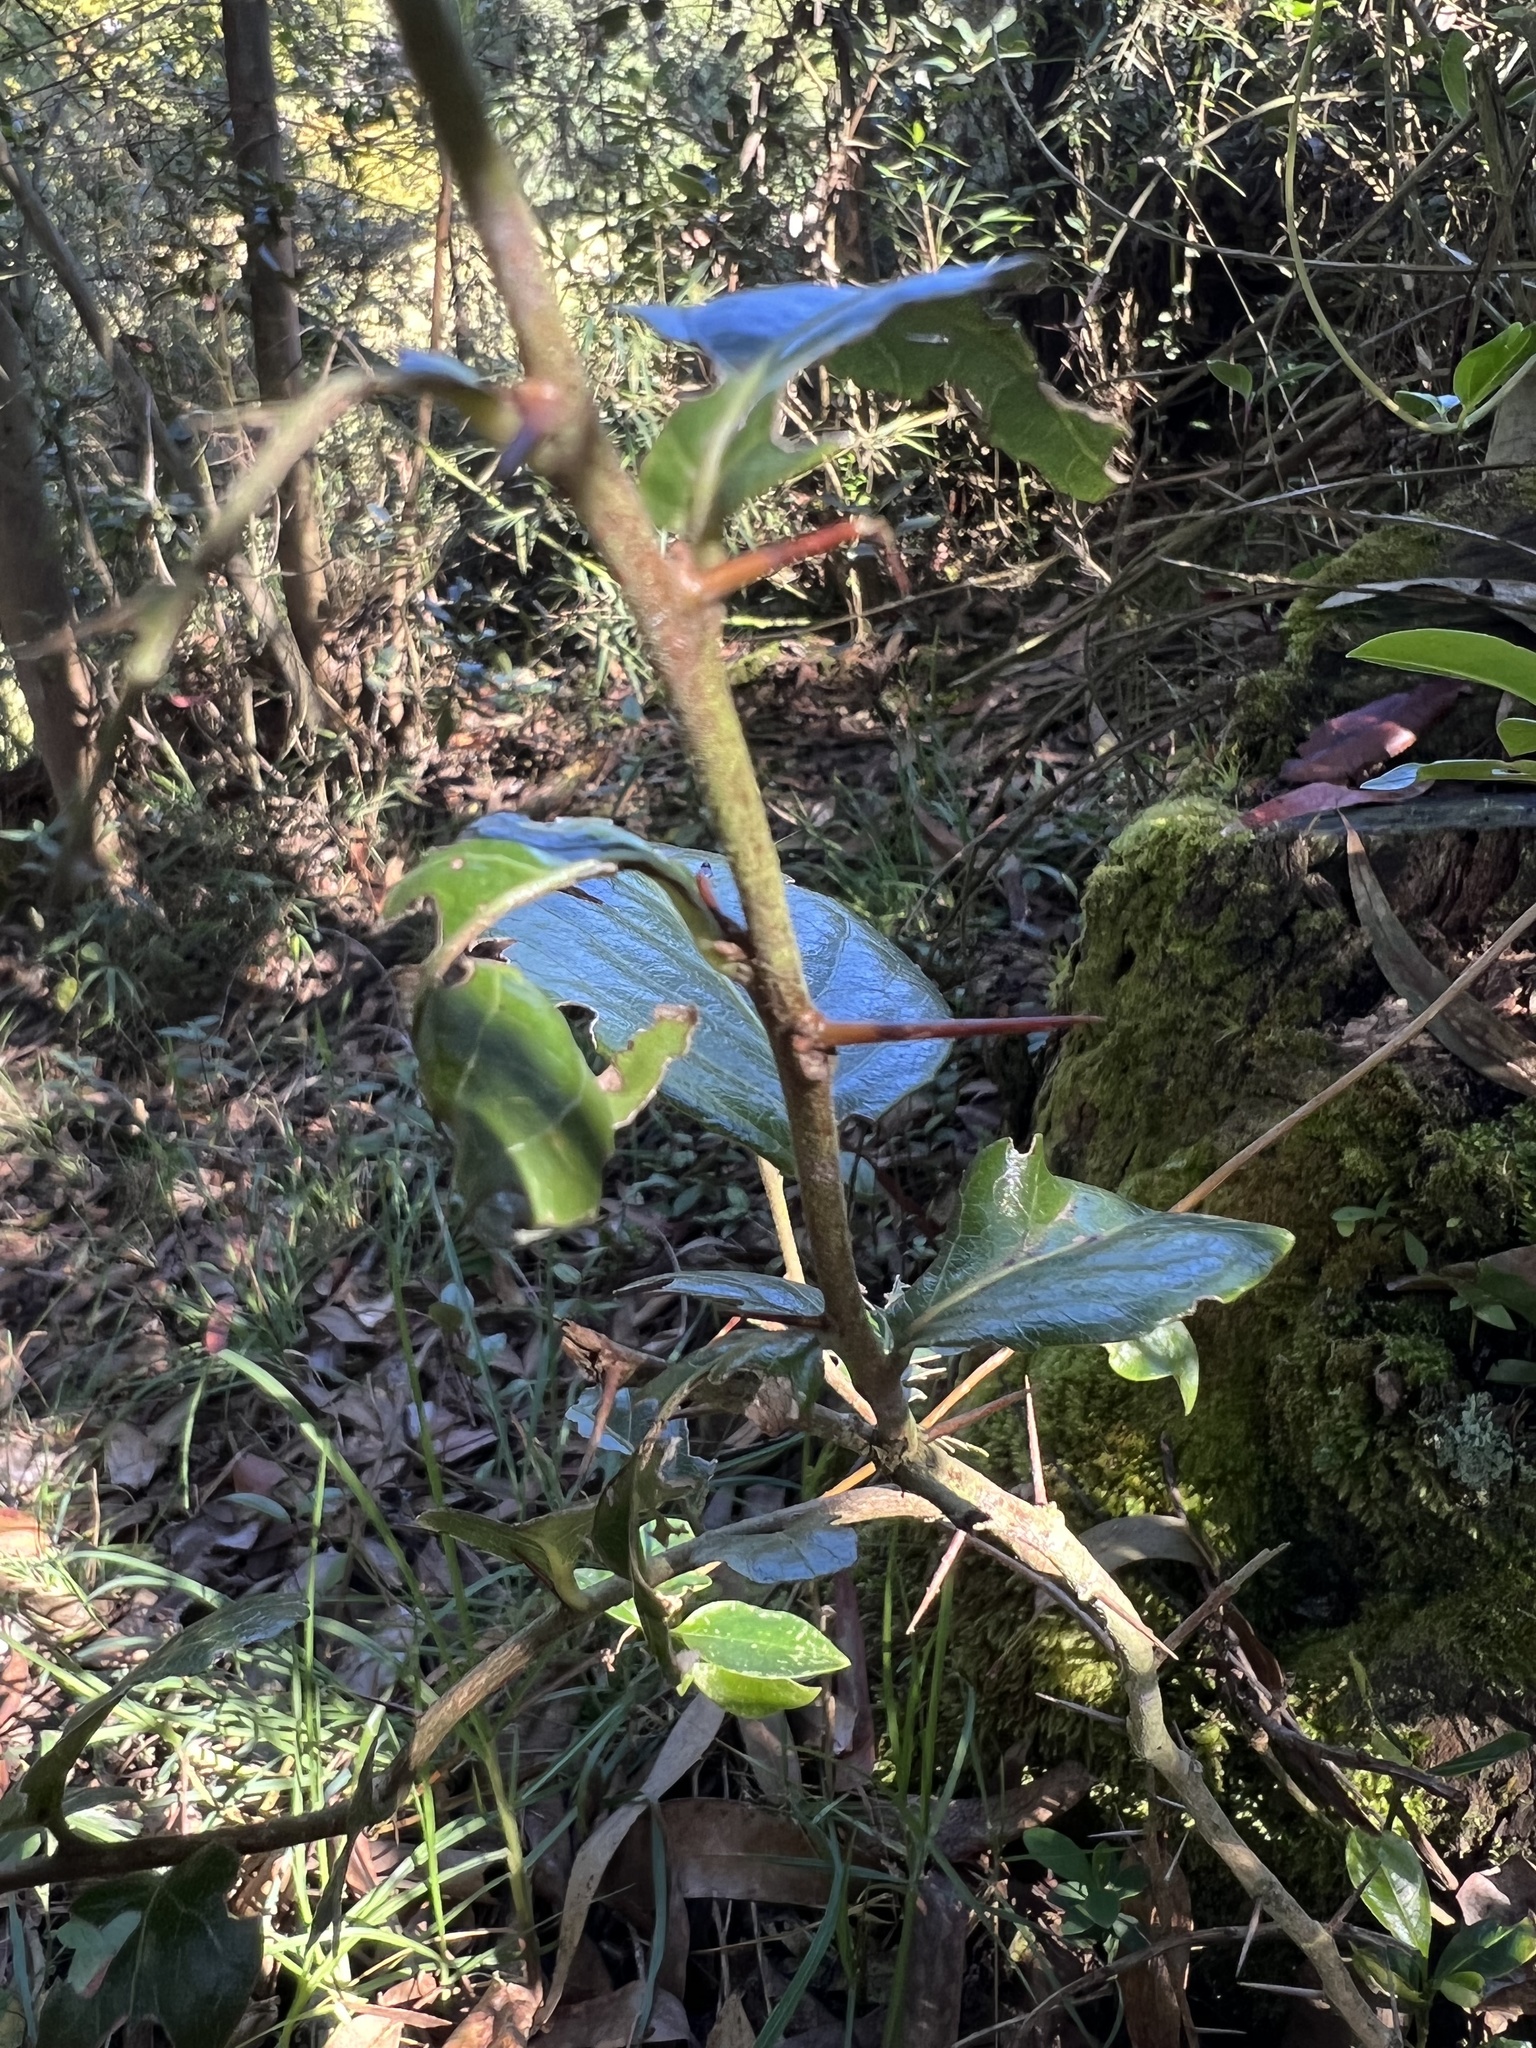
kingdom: Plantae
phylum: Tracheophyta
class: Magnoliopsida
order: Malpighiales
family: Salicaceae
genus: Xylosma
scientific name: Xylosma spiculifera
